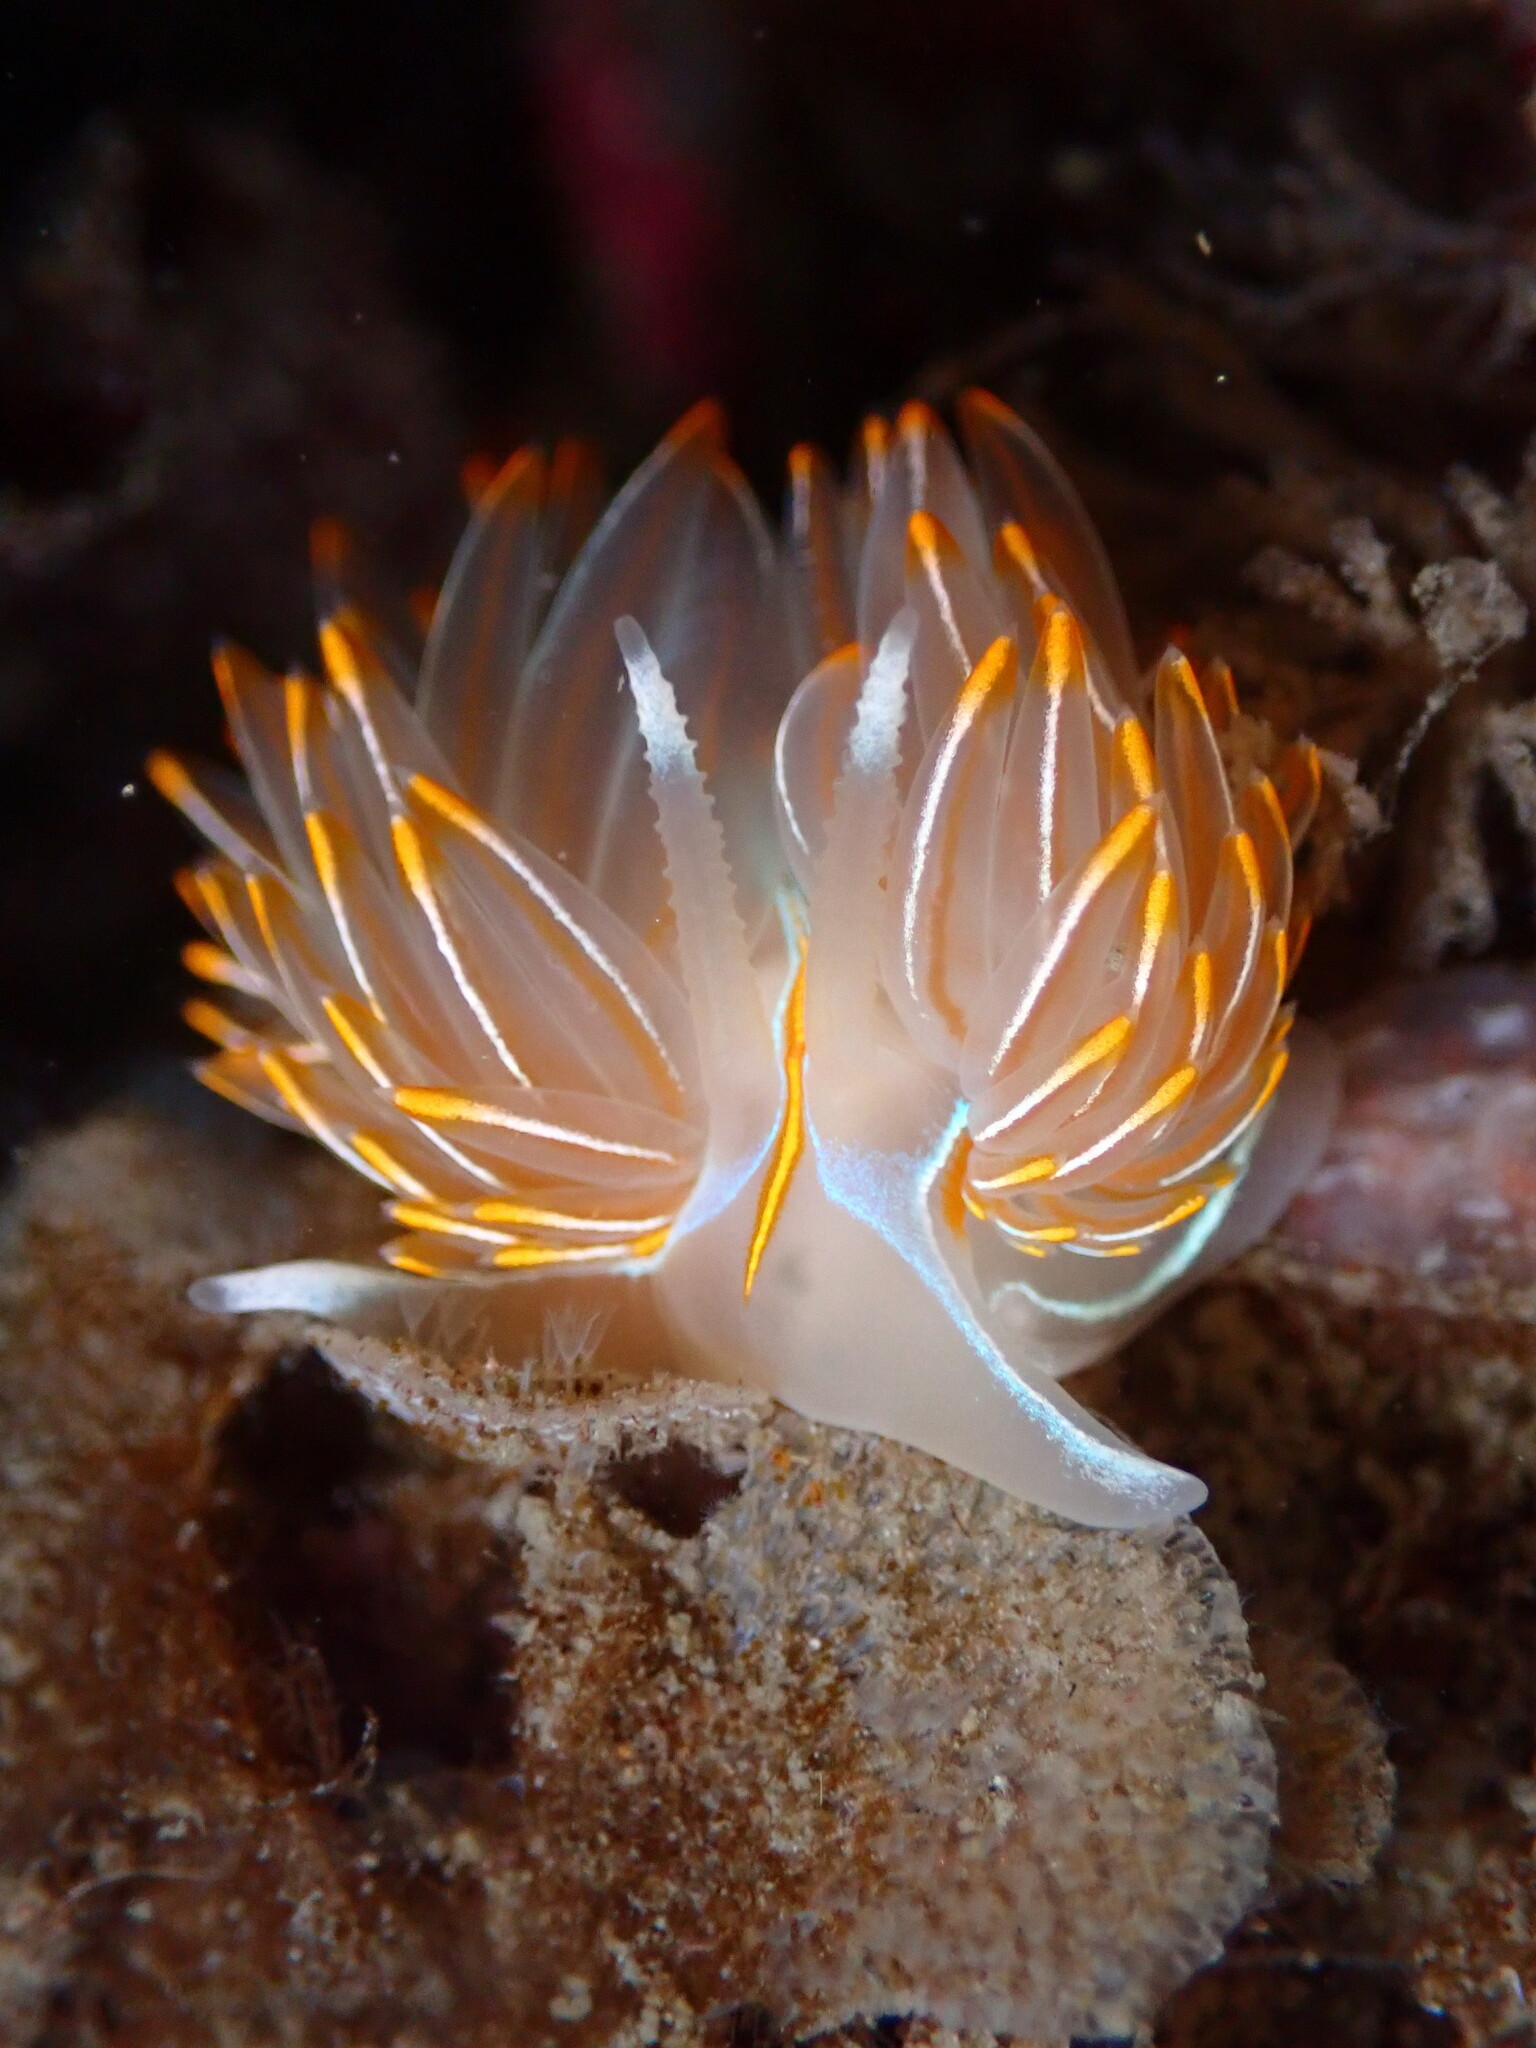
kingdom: Animalia
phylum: Mollusca
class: Gastropoda
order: Nudibranchia
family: Myrrhinidae
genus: Hermissenda
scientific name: Hermissenda crassicornis
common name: Hermissenda
